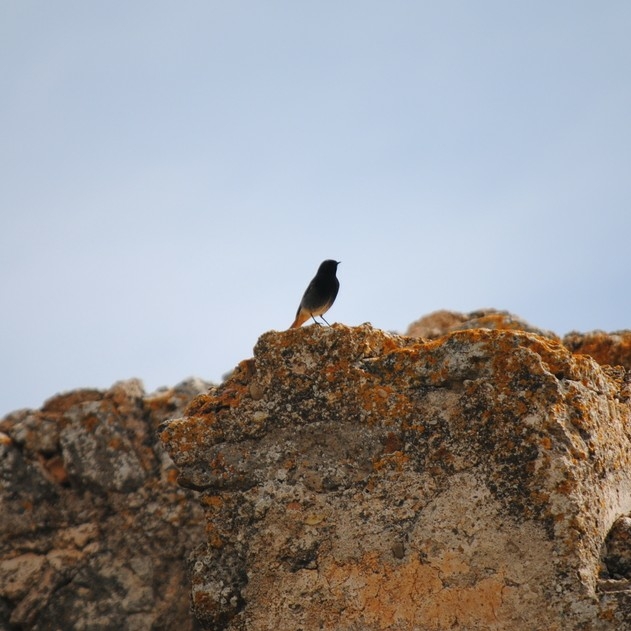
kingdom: Animalia
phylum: Chordata
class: Aves
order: Passeriformes
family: Muscicapidae
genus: Phoenicurus
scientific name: Phoenicurus ochruros
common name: Black redstart
